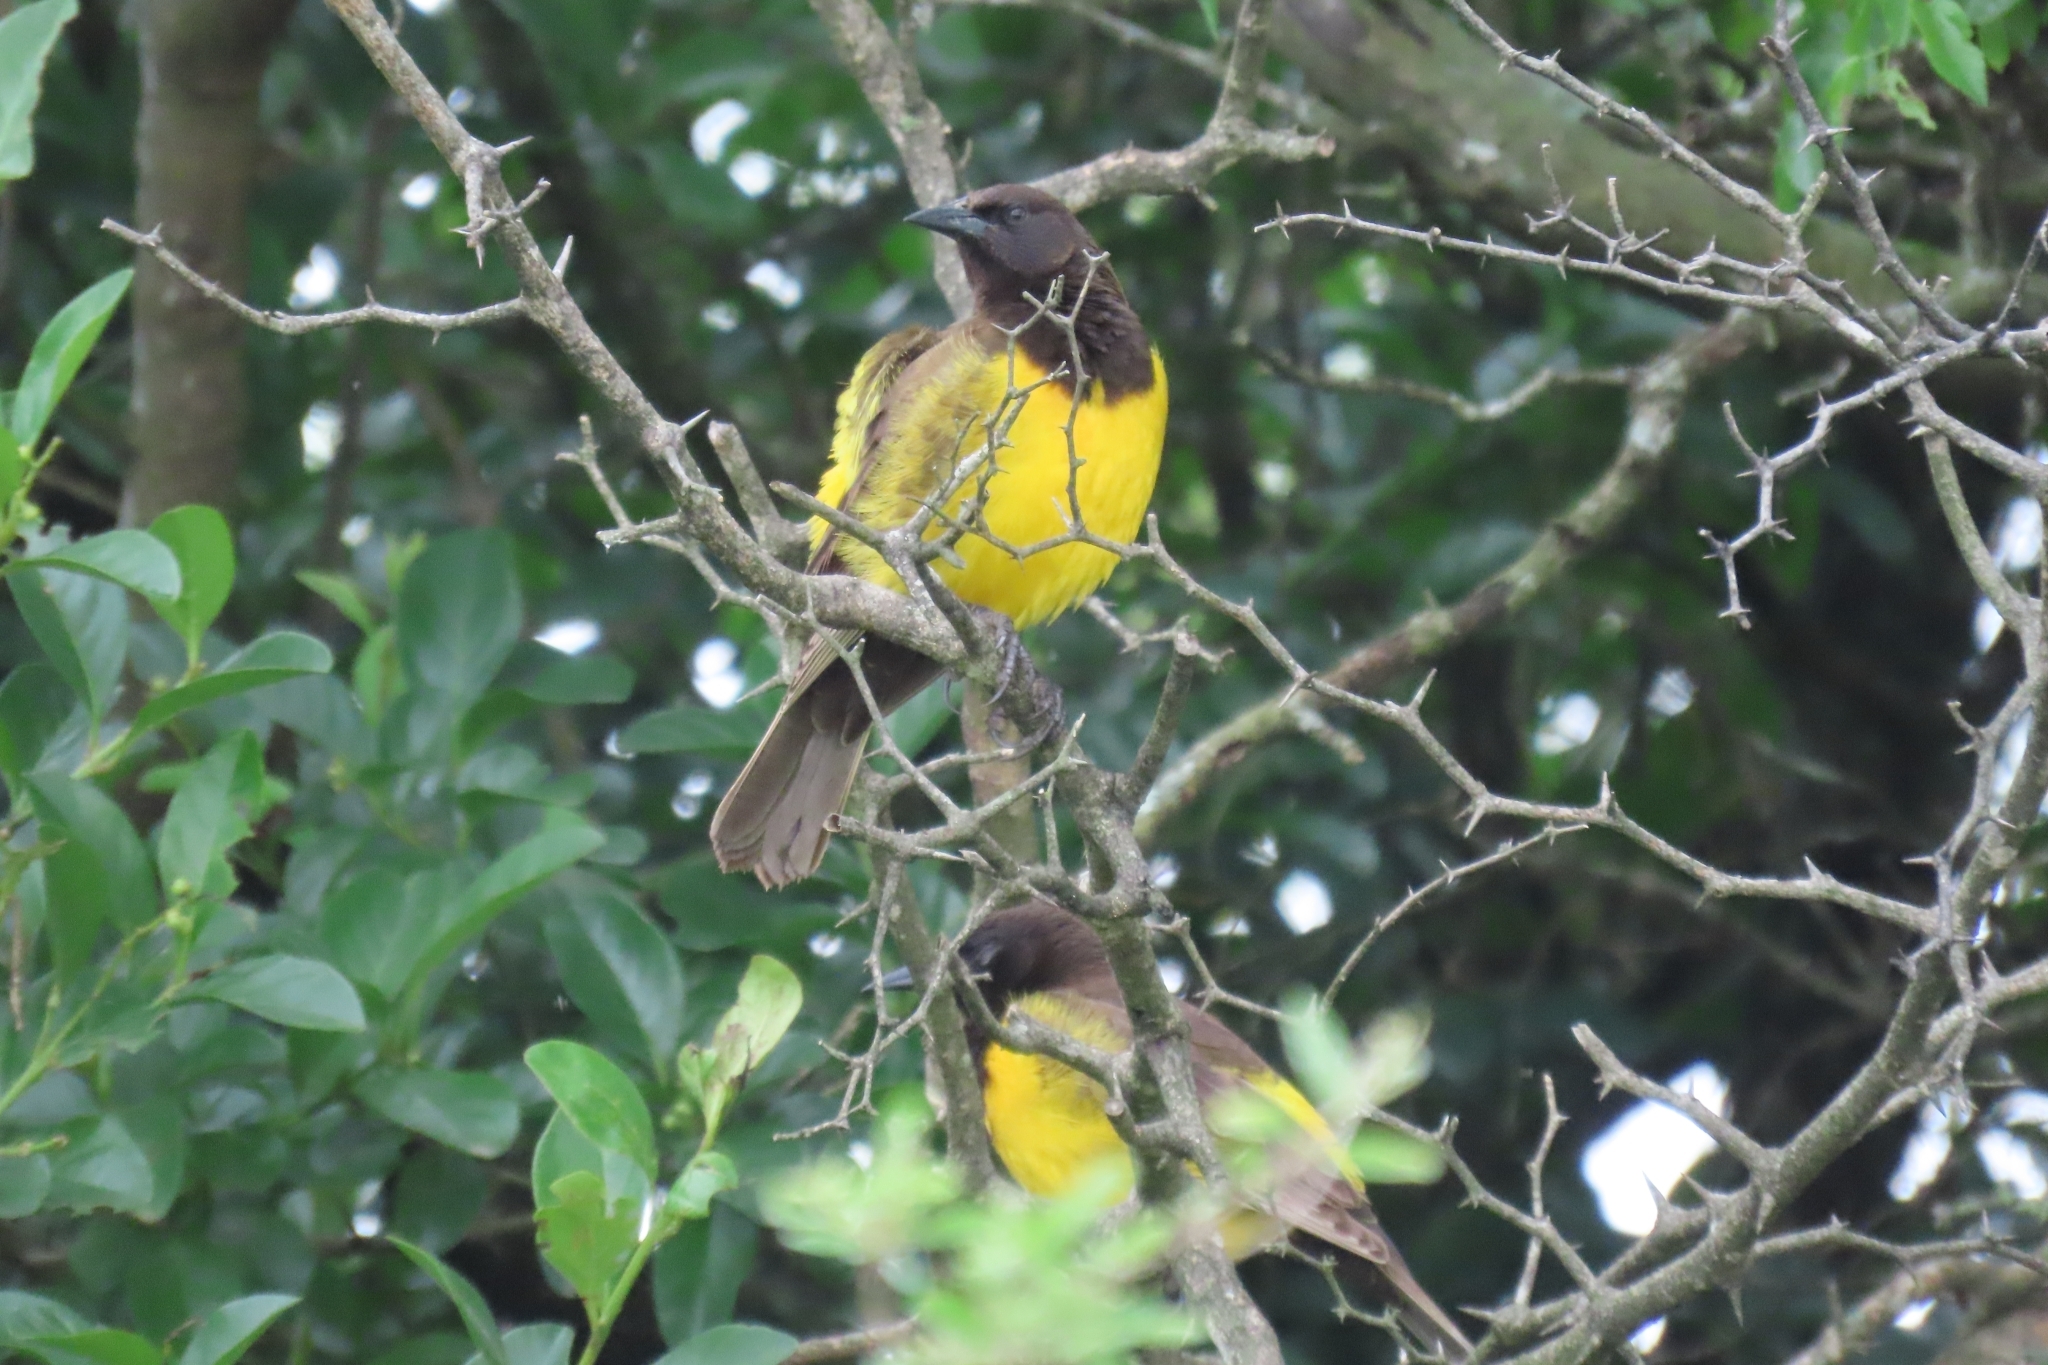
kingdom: Animalia
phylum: Chordata
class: Aves
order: Passeriformes
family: Icteridae
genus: Pseudoleistes
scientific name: Pseudoleistes guirahuro
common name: Yellow-rumped marshbird
